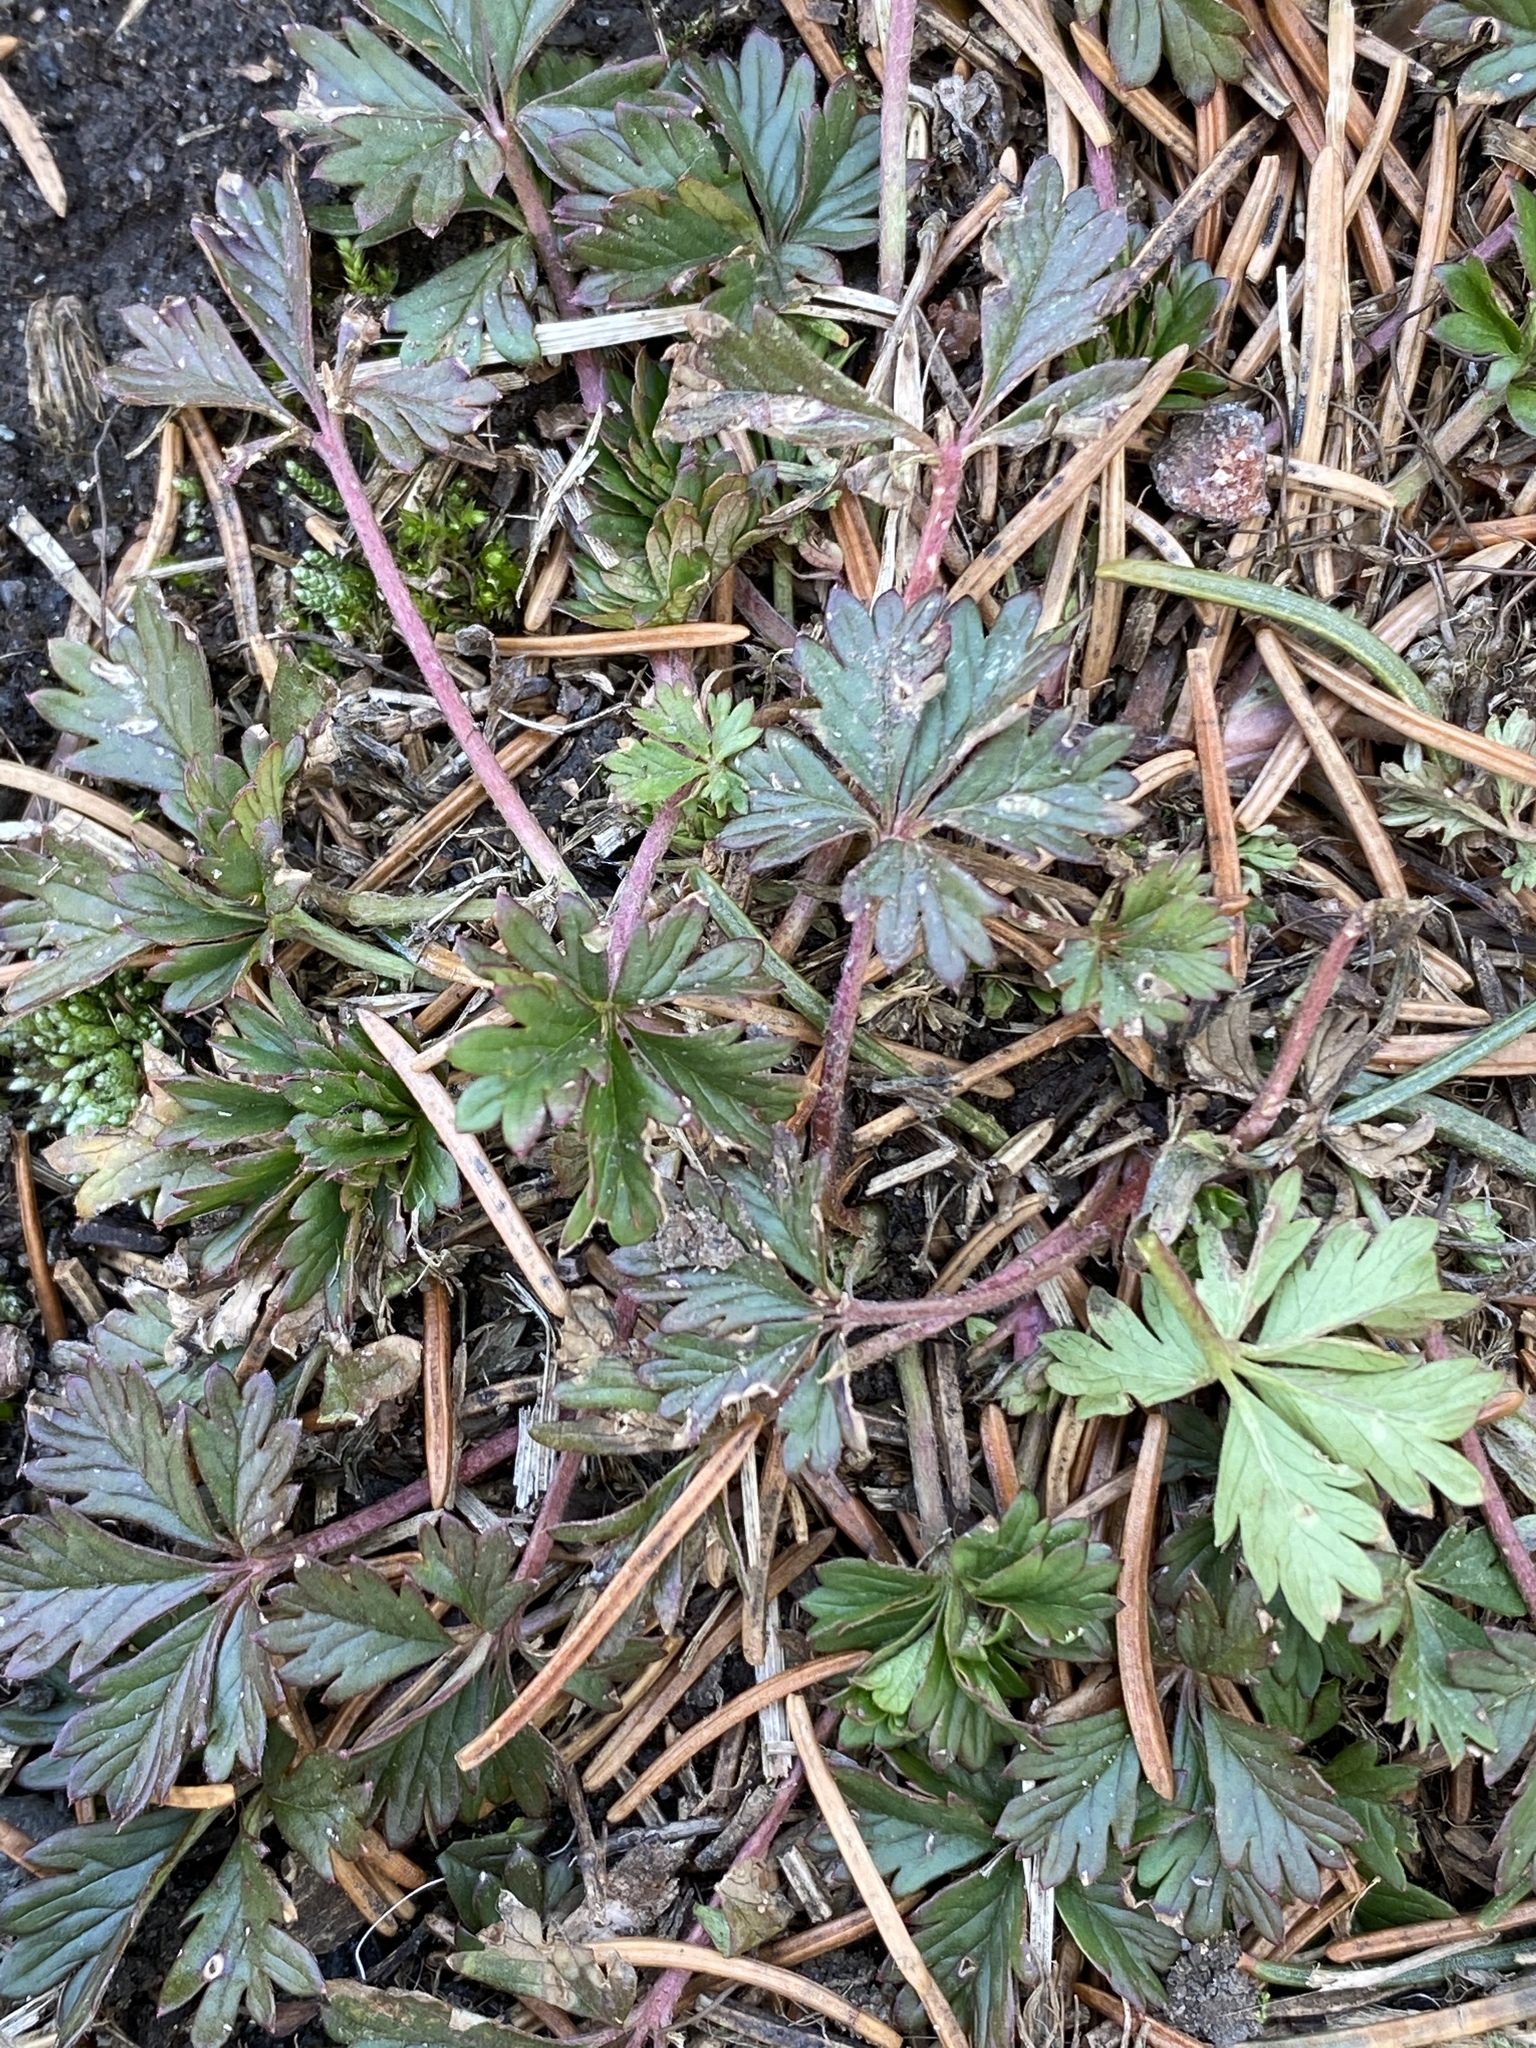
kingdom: Plantae
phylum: Tracheophyta
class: Magnoliopsida
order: Rosales
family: Rosaceae
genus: Potentilla
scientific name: Potentilla argentea
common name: Hoary cinquefoil
